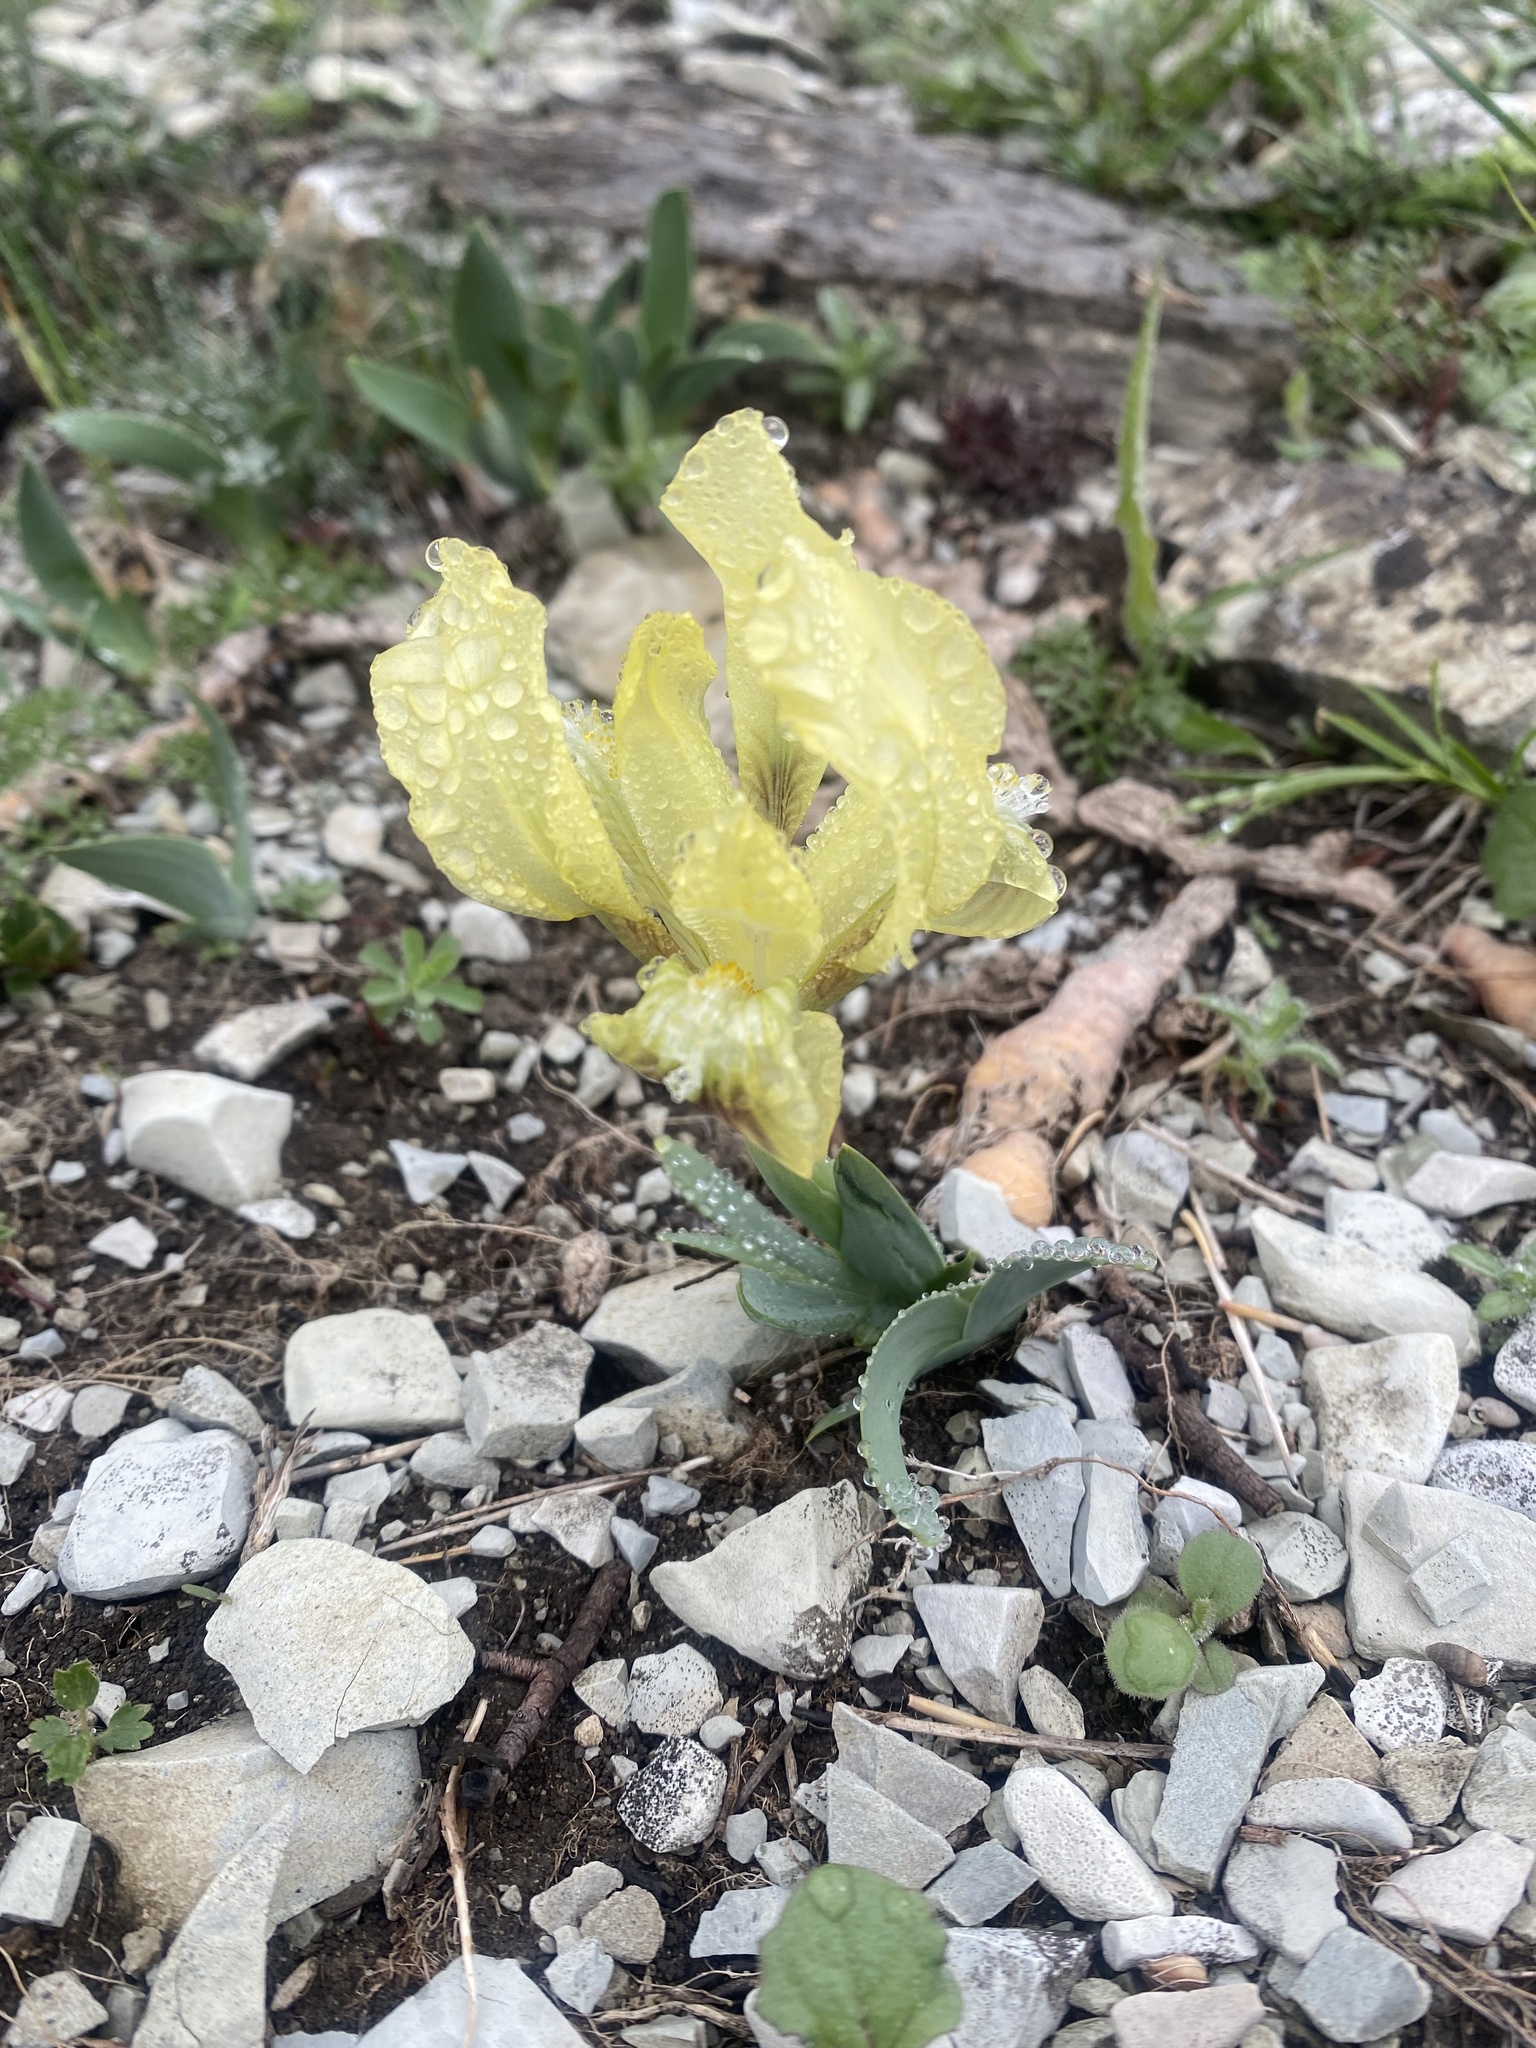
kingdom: Plantae
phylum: Tracheophyta
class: Liliopsida
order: Asparagales
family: Iridaceae
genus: Iris
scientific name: Iris pumila
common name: Dwarf iris
